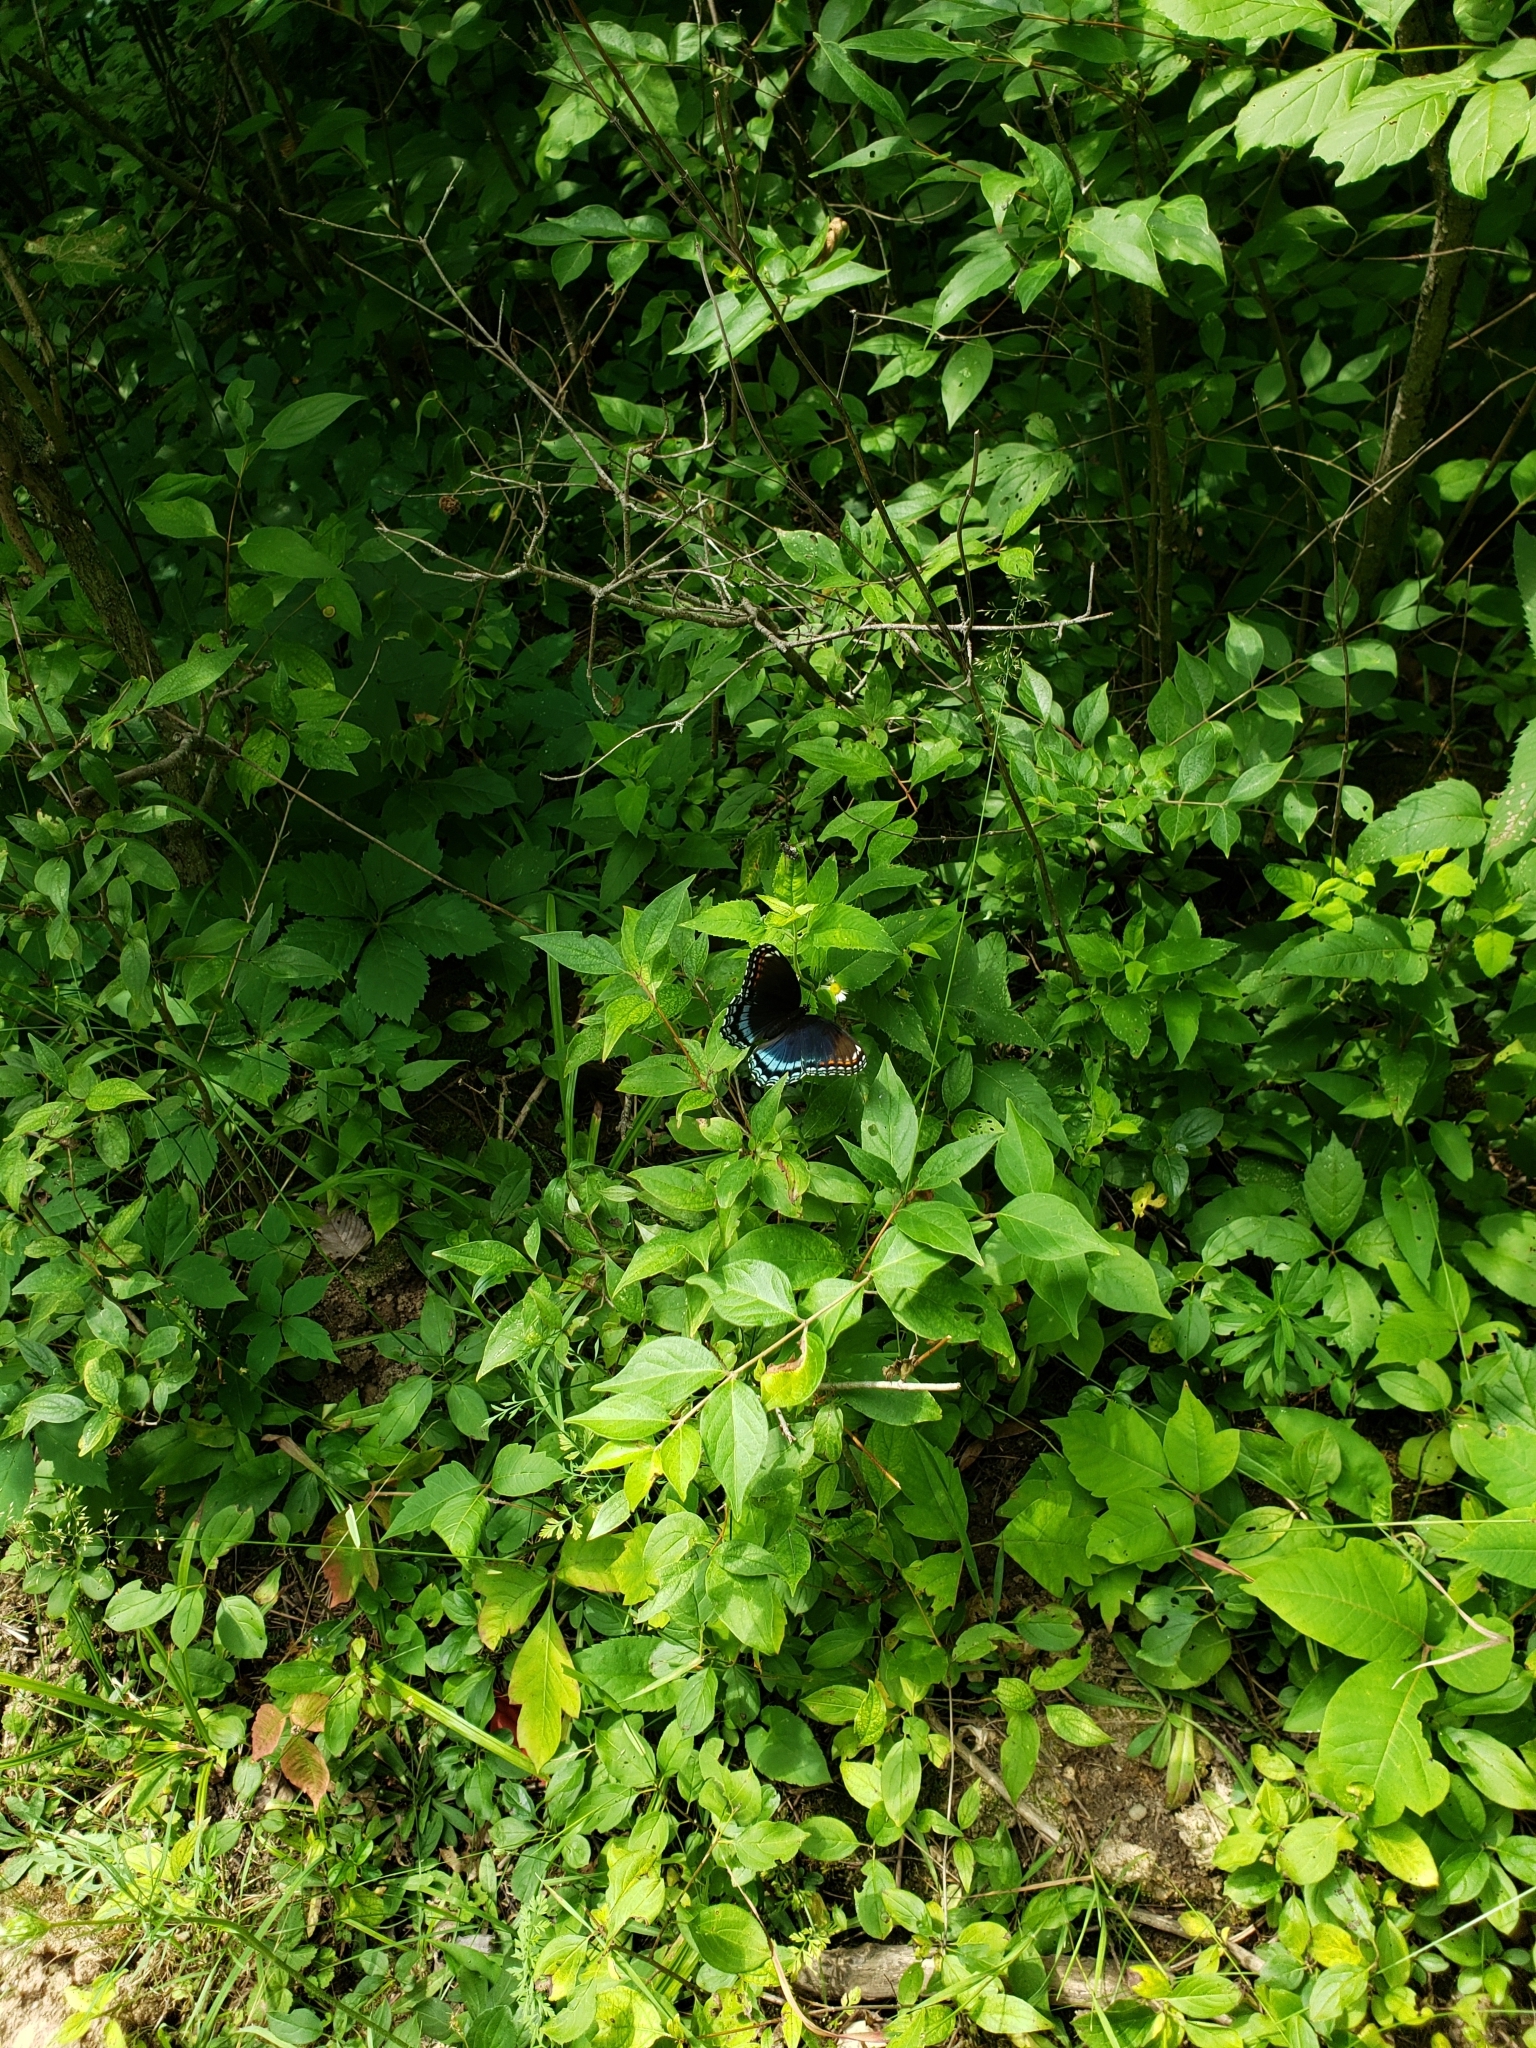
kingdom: Animalia
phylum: Arthropoda
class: Insecta
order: Lepidoptera
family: Nymphalidae
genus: Limenitis
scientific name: Limenitis arthemis
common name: Red-spotted admiral
